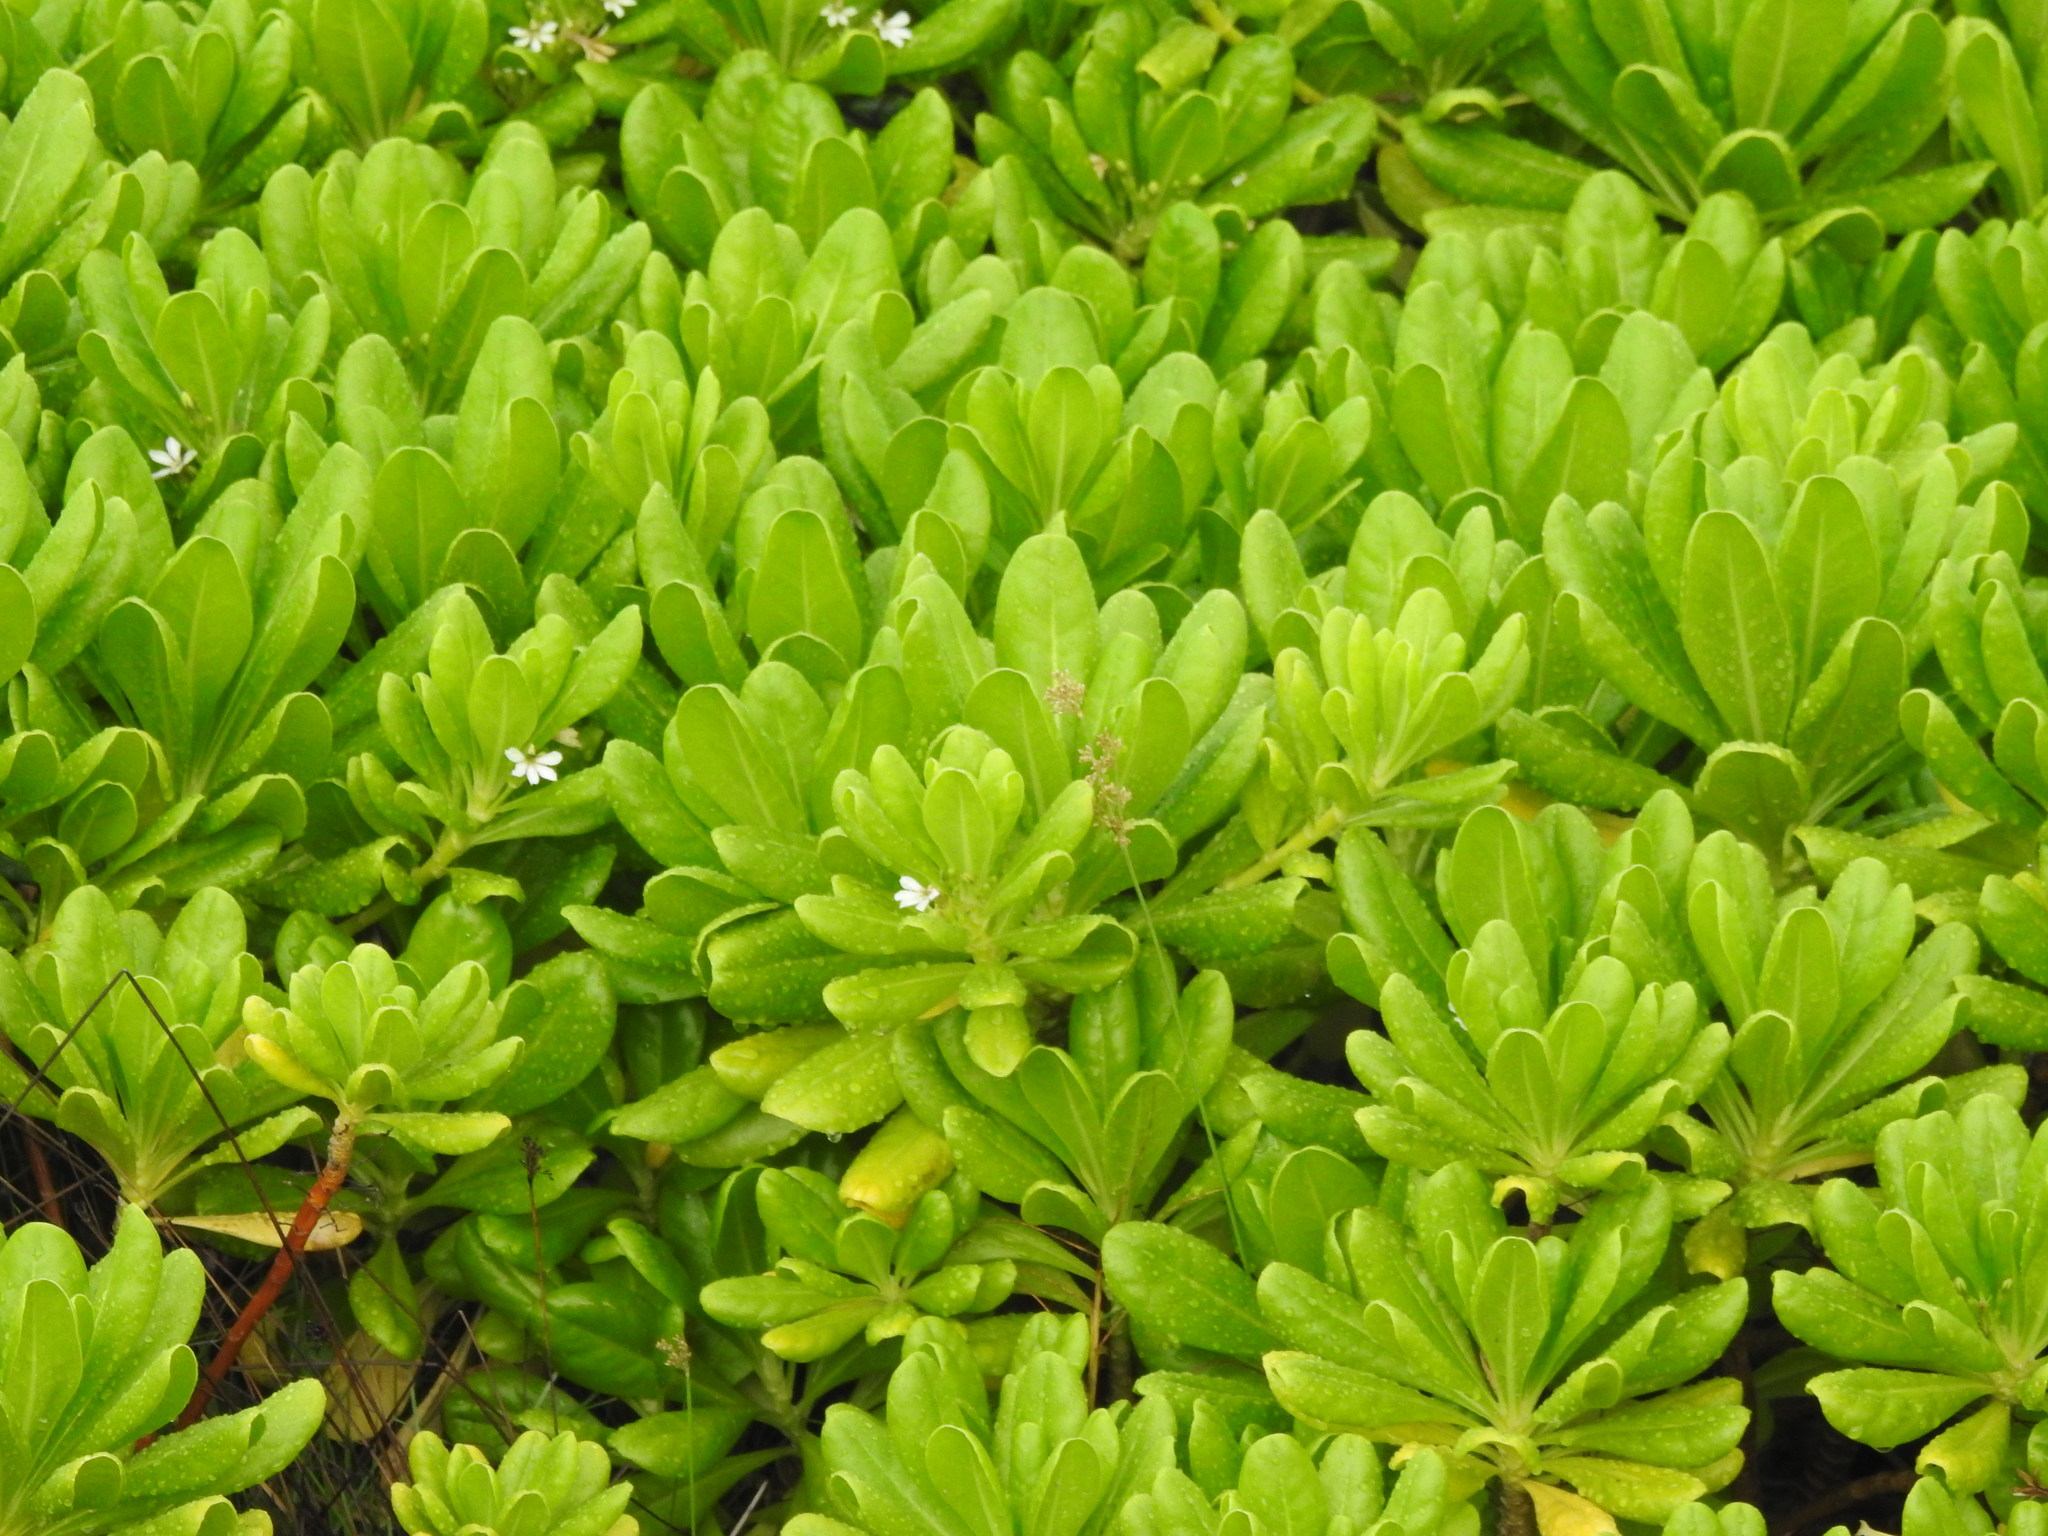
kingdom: Plantae
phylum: Tracheophyta
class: Magnoliopsida
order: Asterales
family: Goodeniaceae
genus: Scaevola
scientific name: Scaevola taccada
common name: Sea lettucetree
